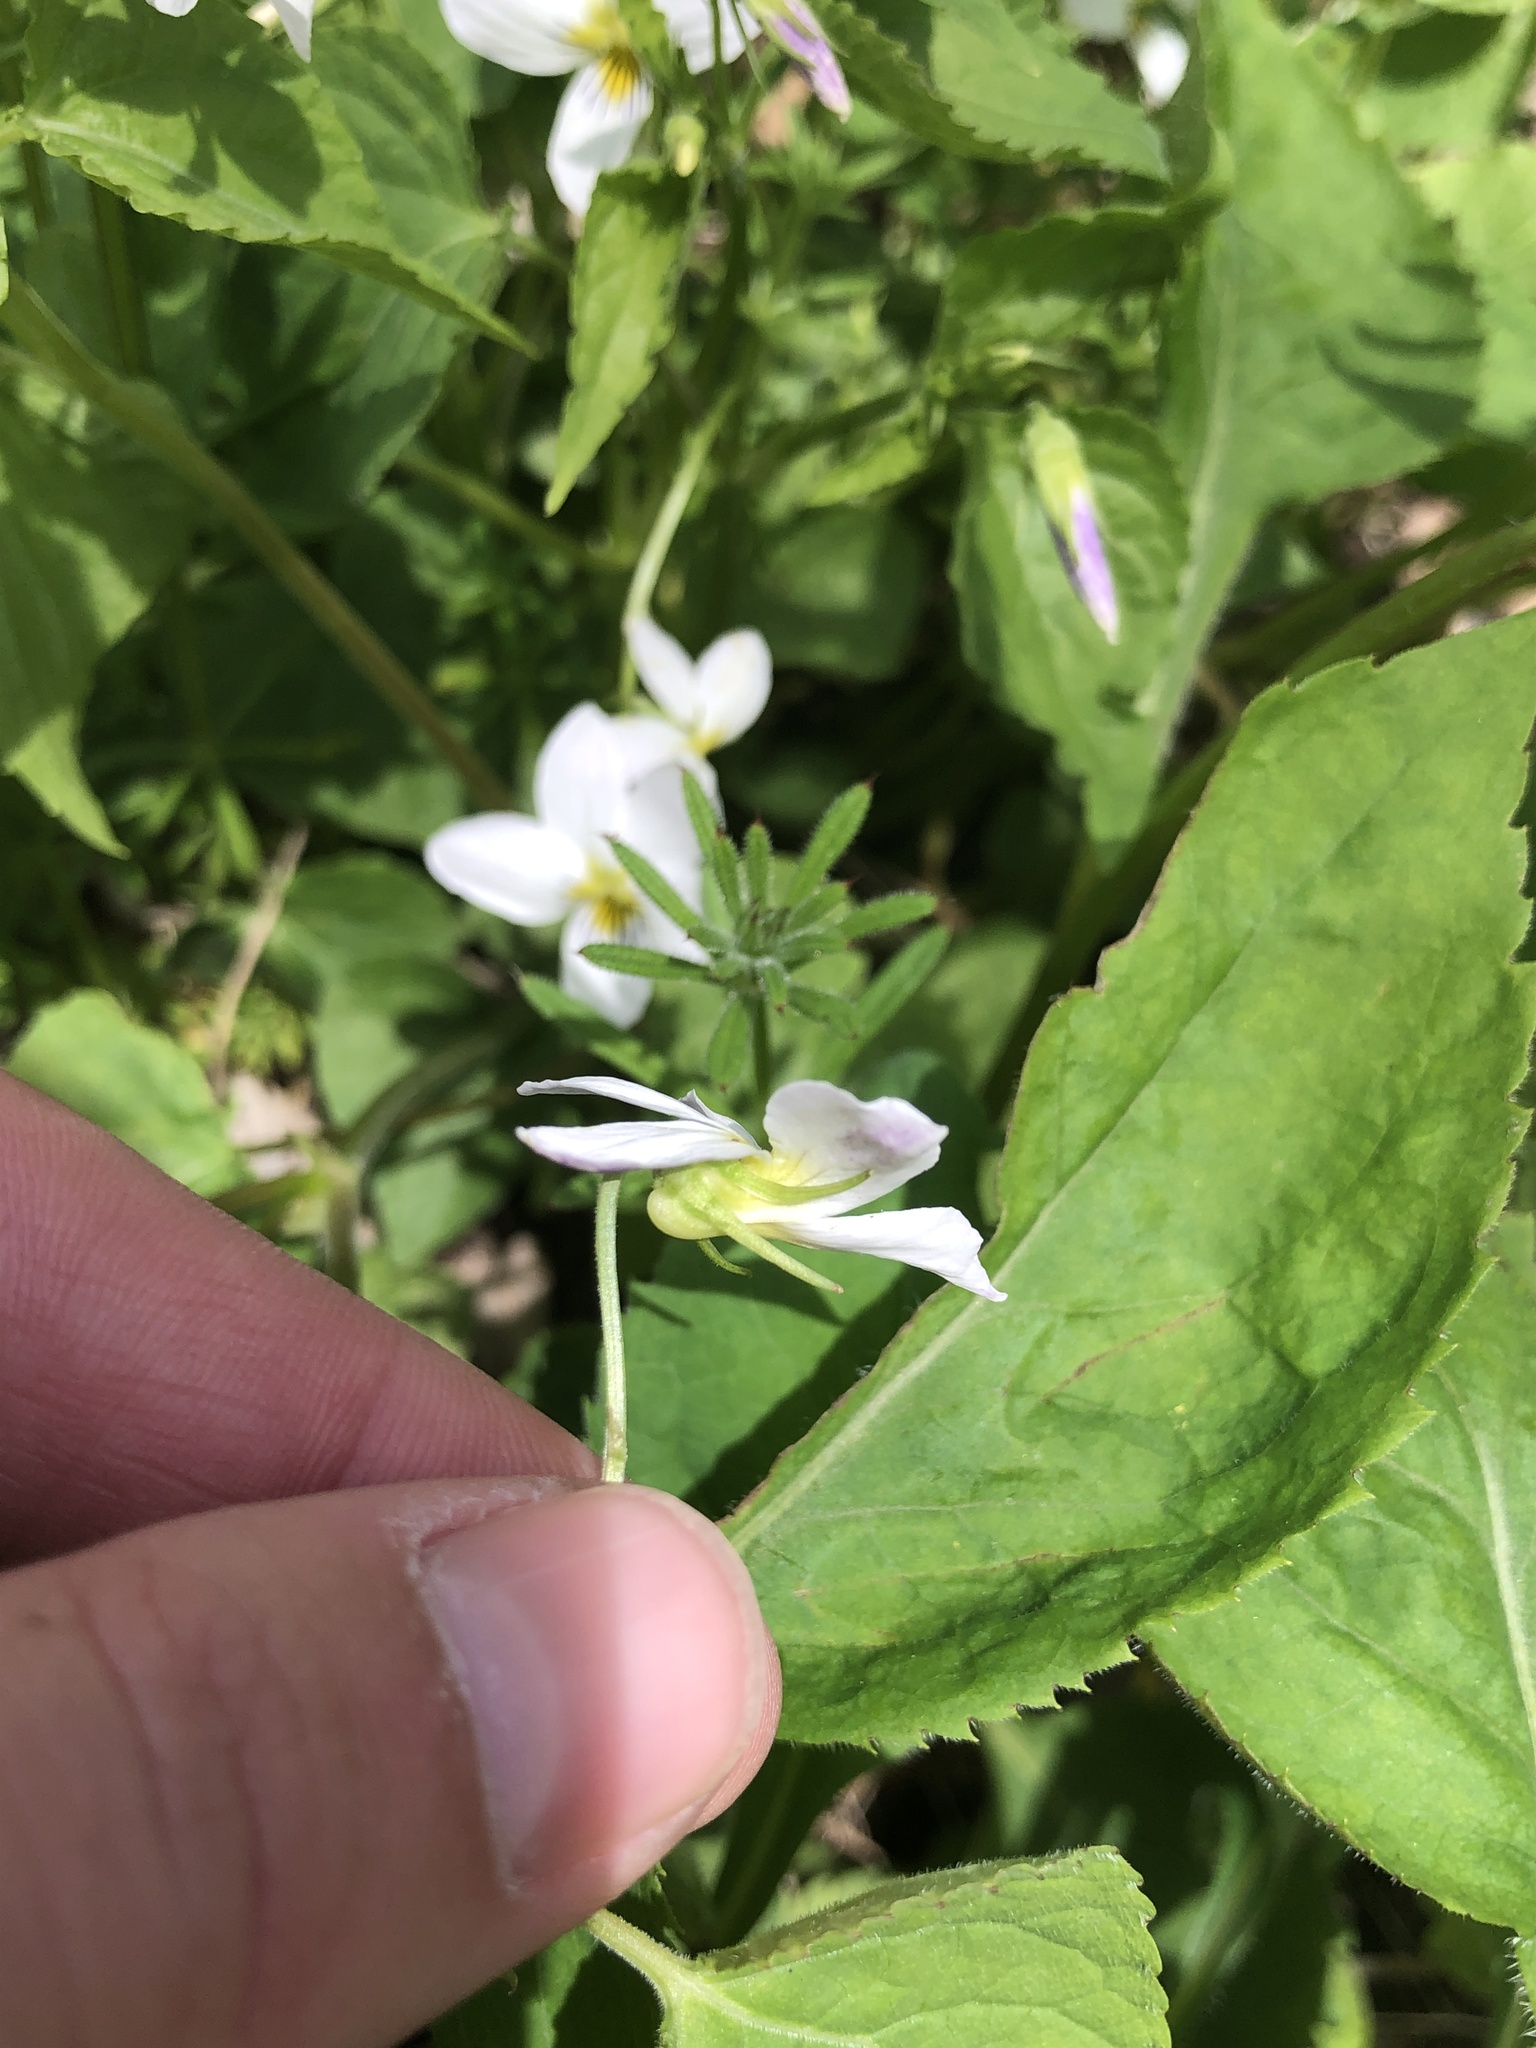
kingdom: Plantae
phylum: Tracheophyta
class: Magnoliopsida
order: Malpighiales
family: Violaceae
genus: Viola
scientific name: Viola canadensis
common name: Canada violet
